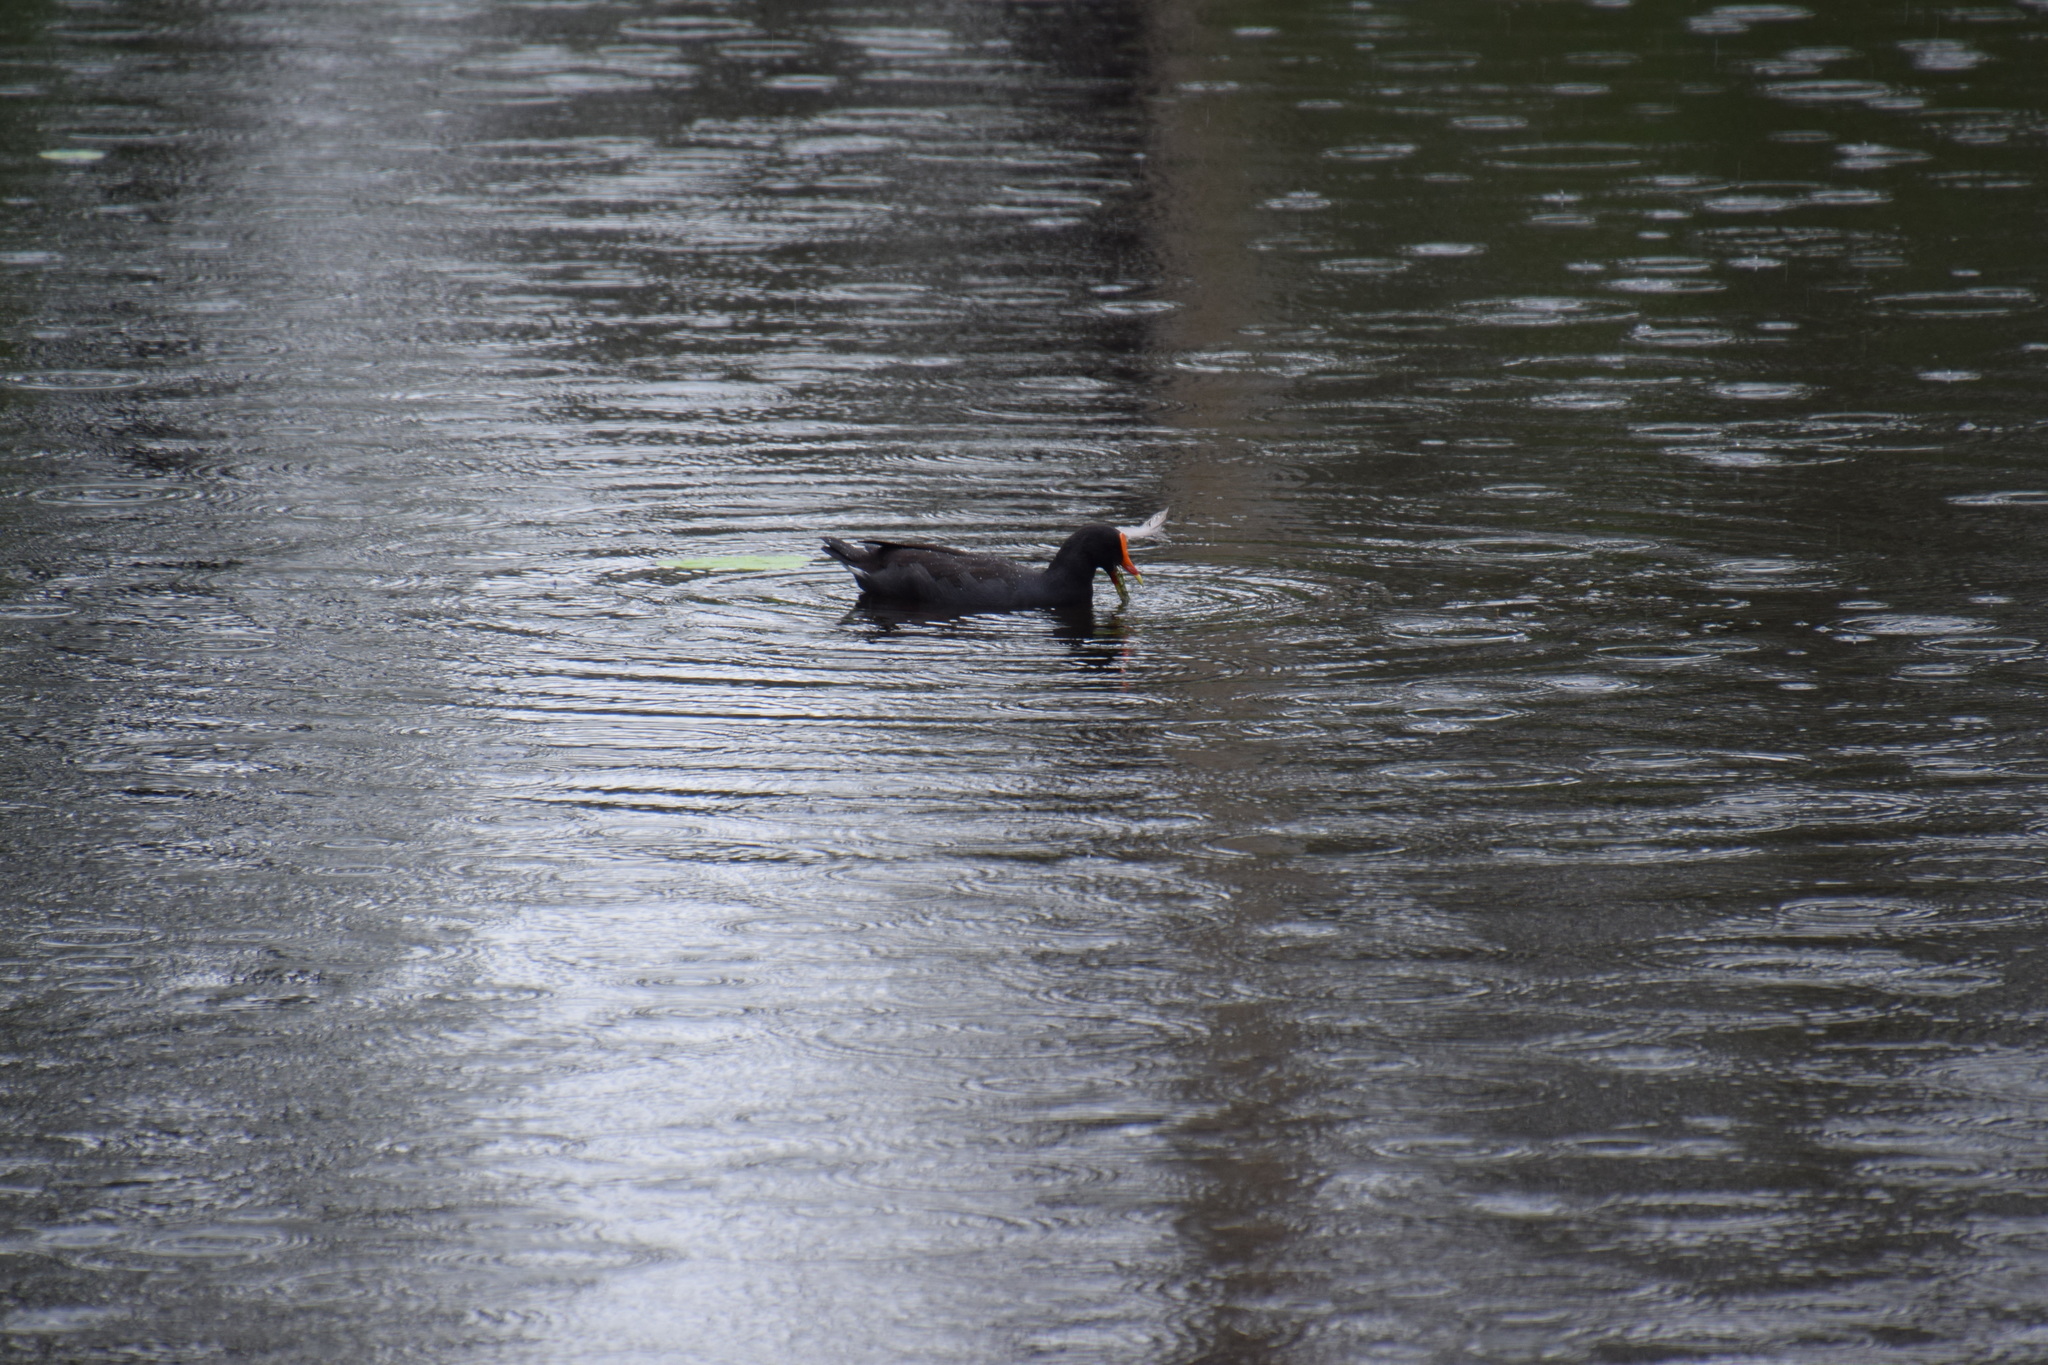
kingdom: Animalia
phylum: Chordata
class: Aves
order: Gruiformes
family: Rallidae
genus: Gallinula
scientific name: Gallinula tenebrosa
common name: Dusky moorhen
